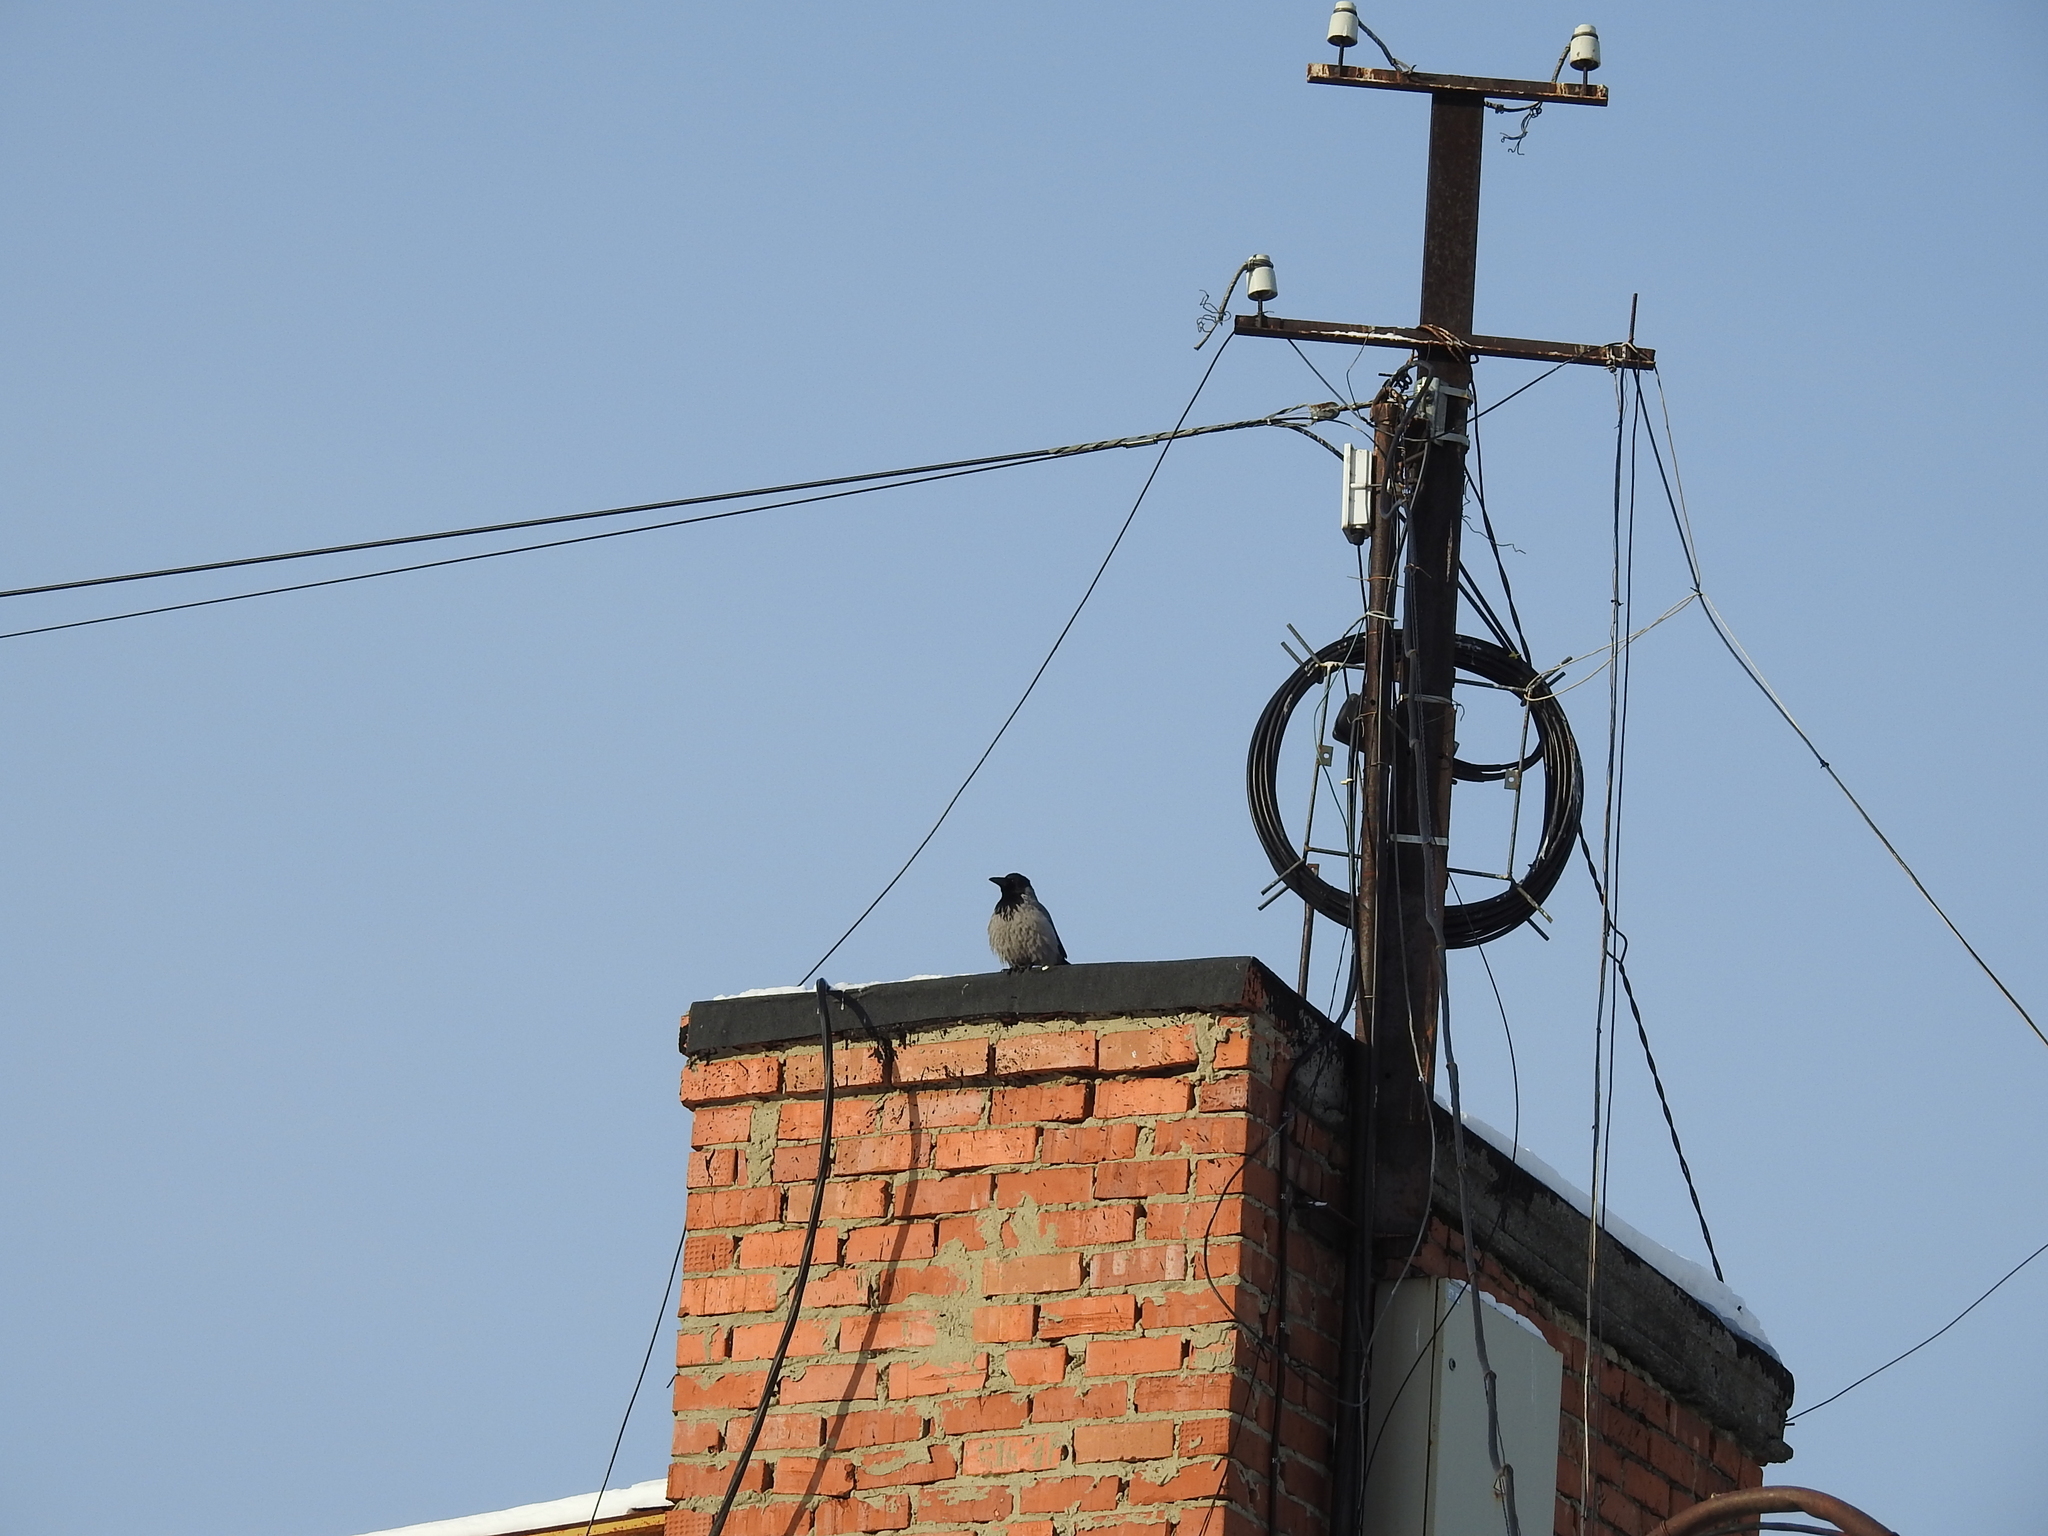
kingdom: Animalia
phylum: Chordata
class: Aves
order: Passeriformes
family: Corvidae
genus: Corvus
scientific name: Corvus cornix
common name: Hooded crow
